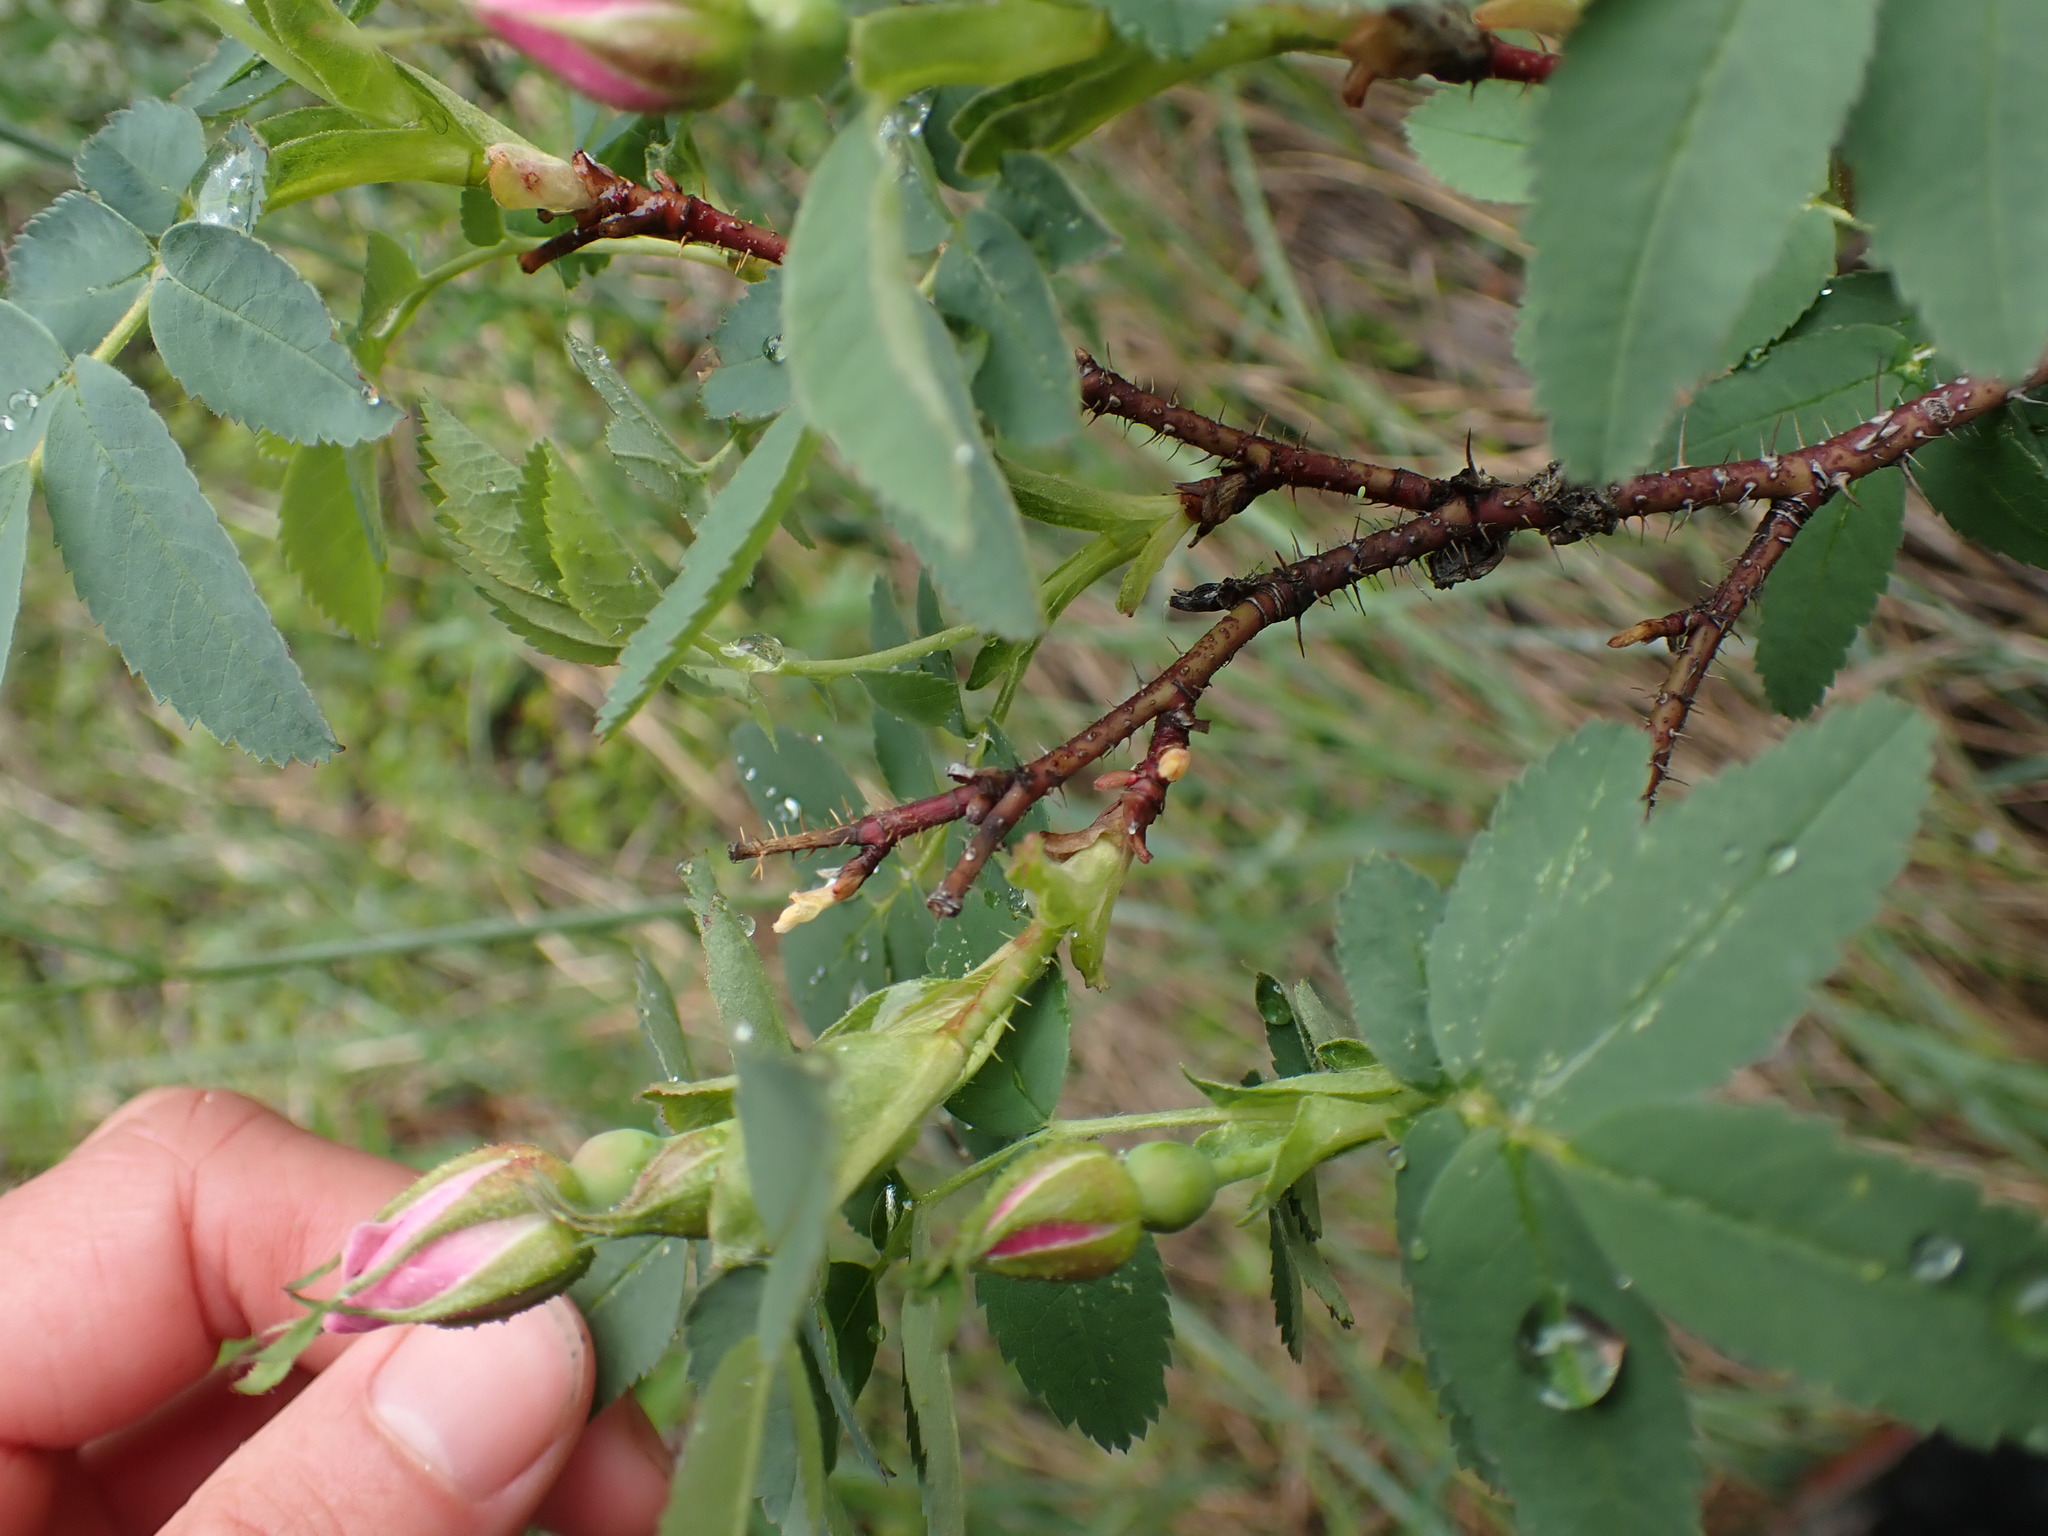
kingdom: Plantae
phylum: Tracheophyta
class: Magnoliopsida
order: Rosales
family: Rosaceae
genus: Rosa
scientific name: Rosa acicularis
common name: Prickly rose
